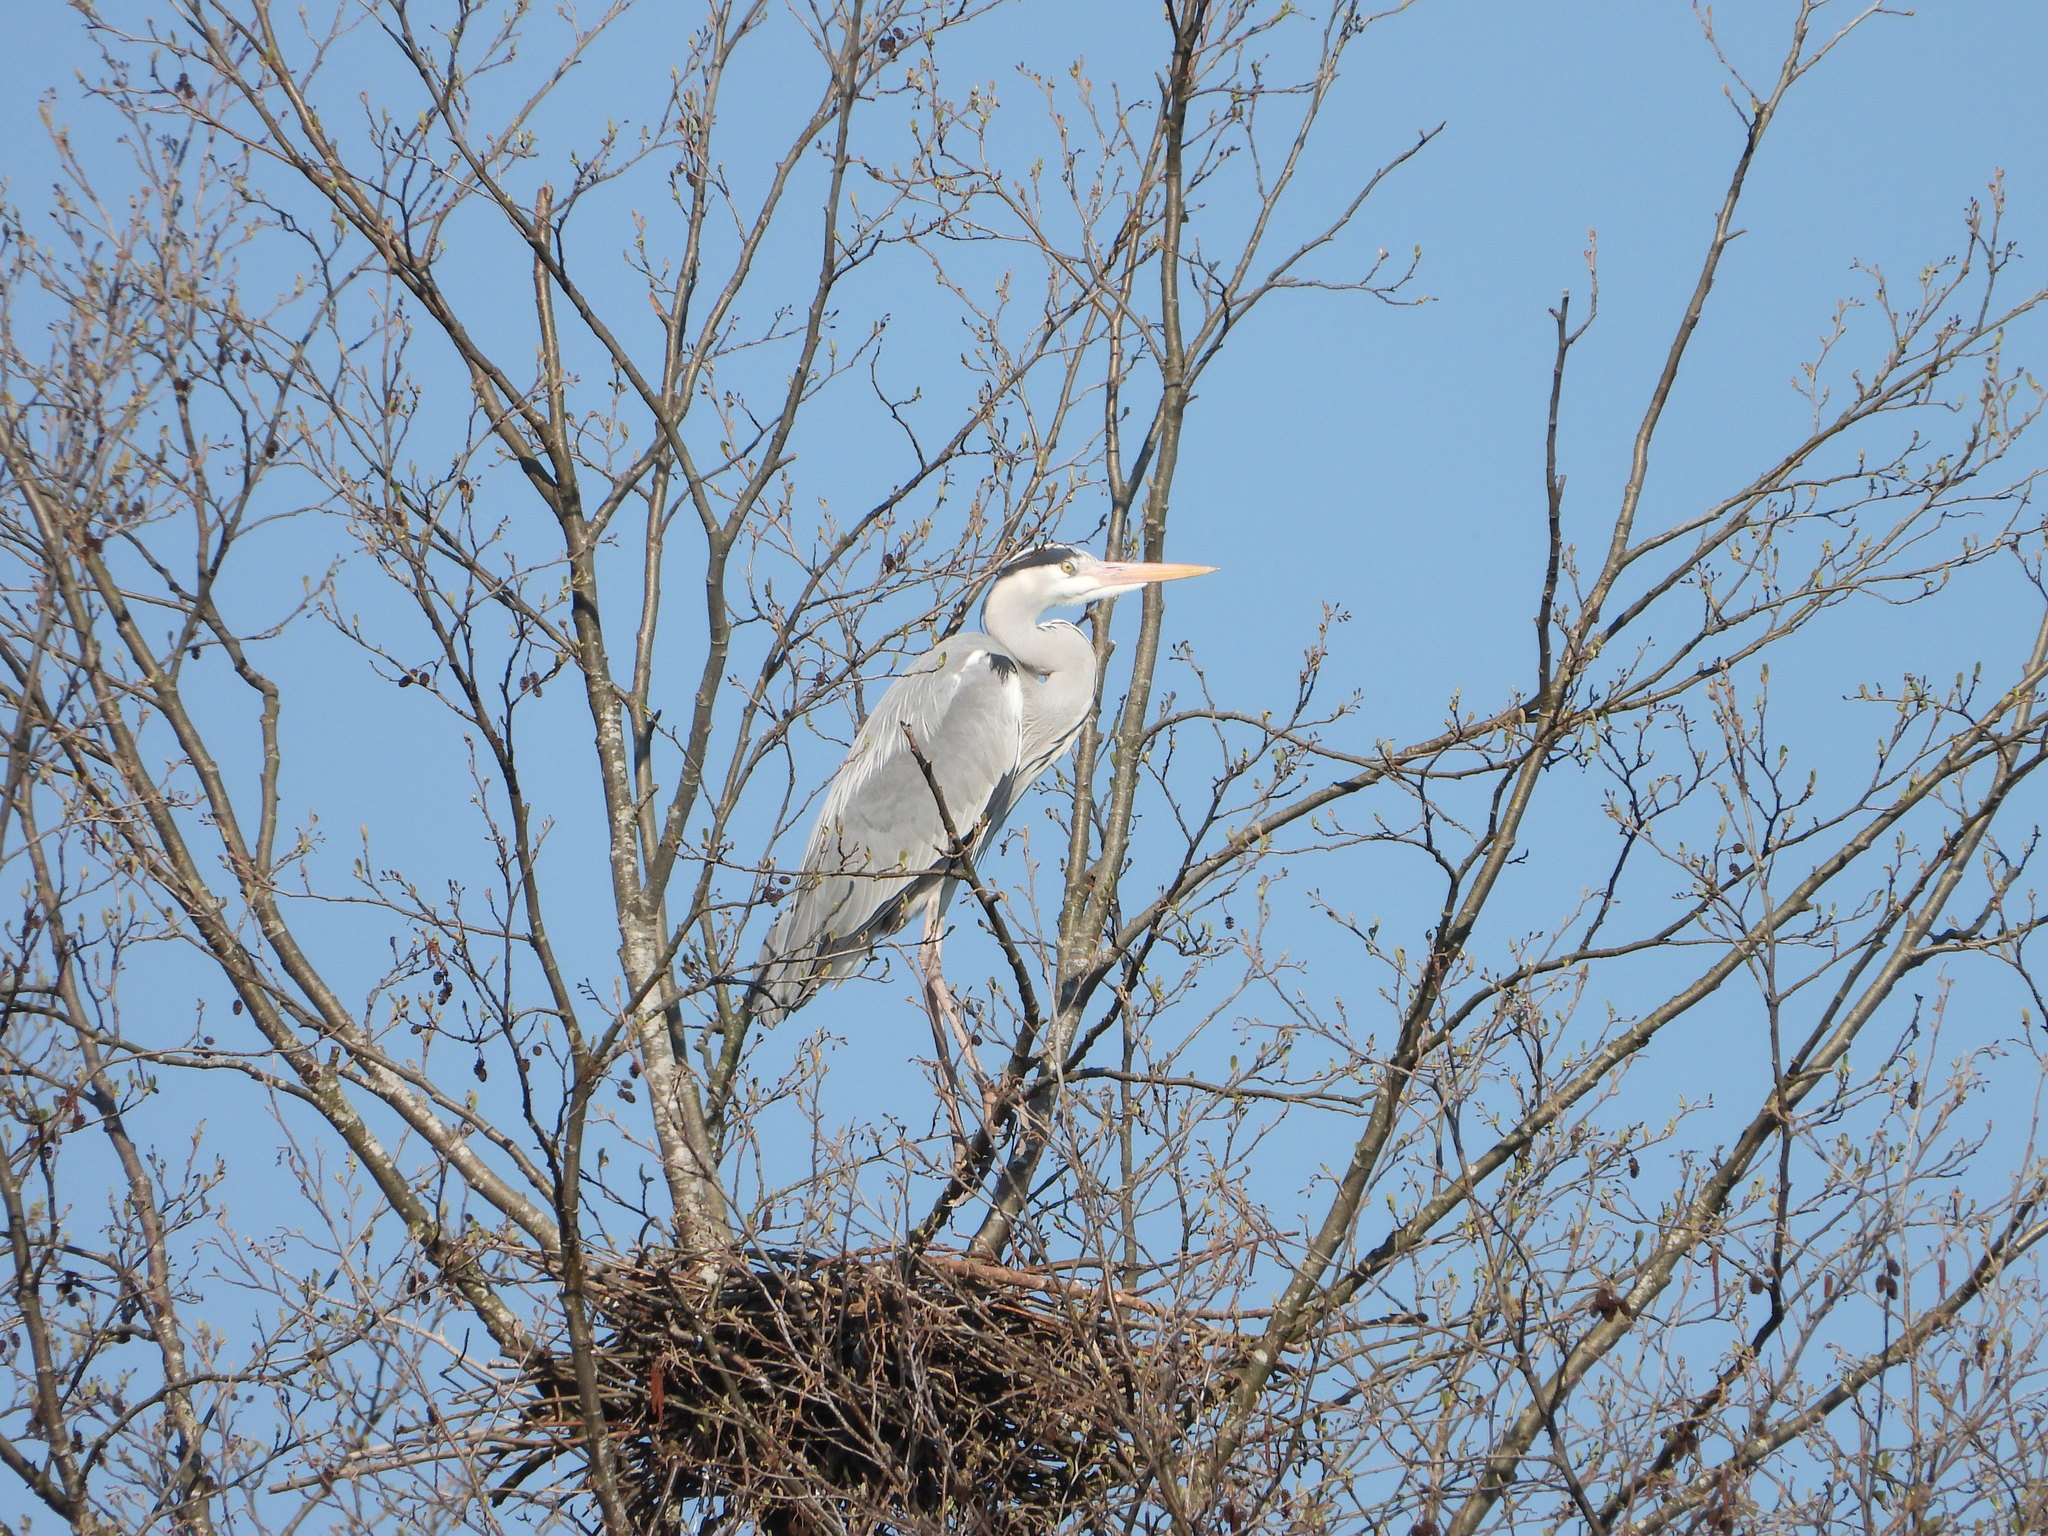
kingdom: Animalia
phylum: Chordata
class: Aves
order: Pelecaniformes
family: Ardeidae
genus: Ardea
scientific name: Ardea cinerea
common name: Grey heron
